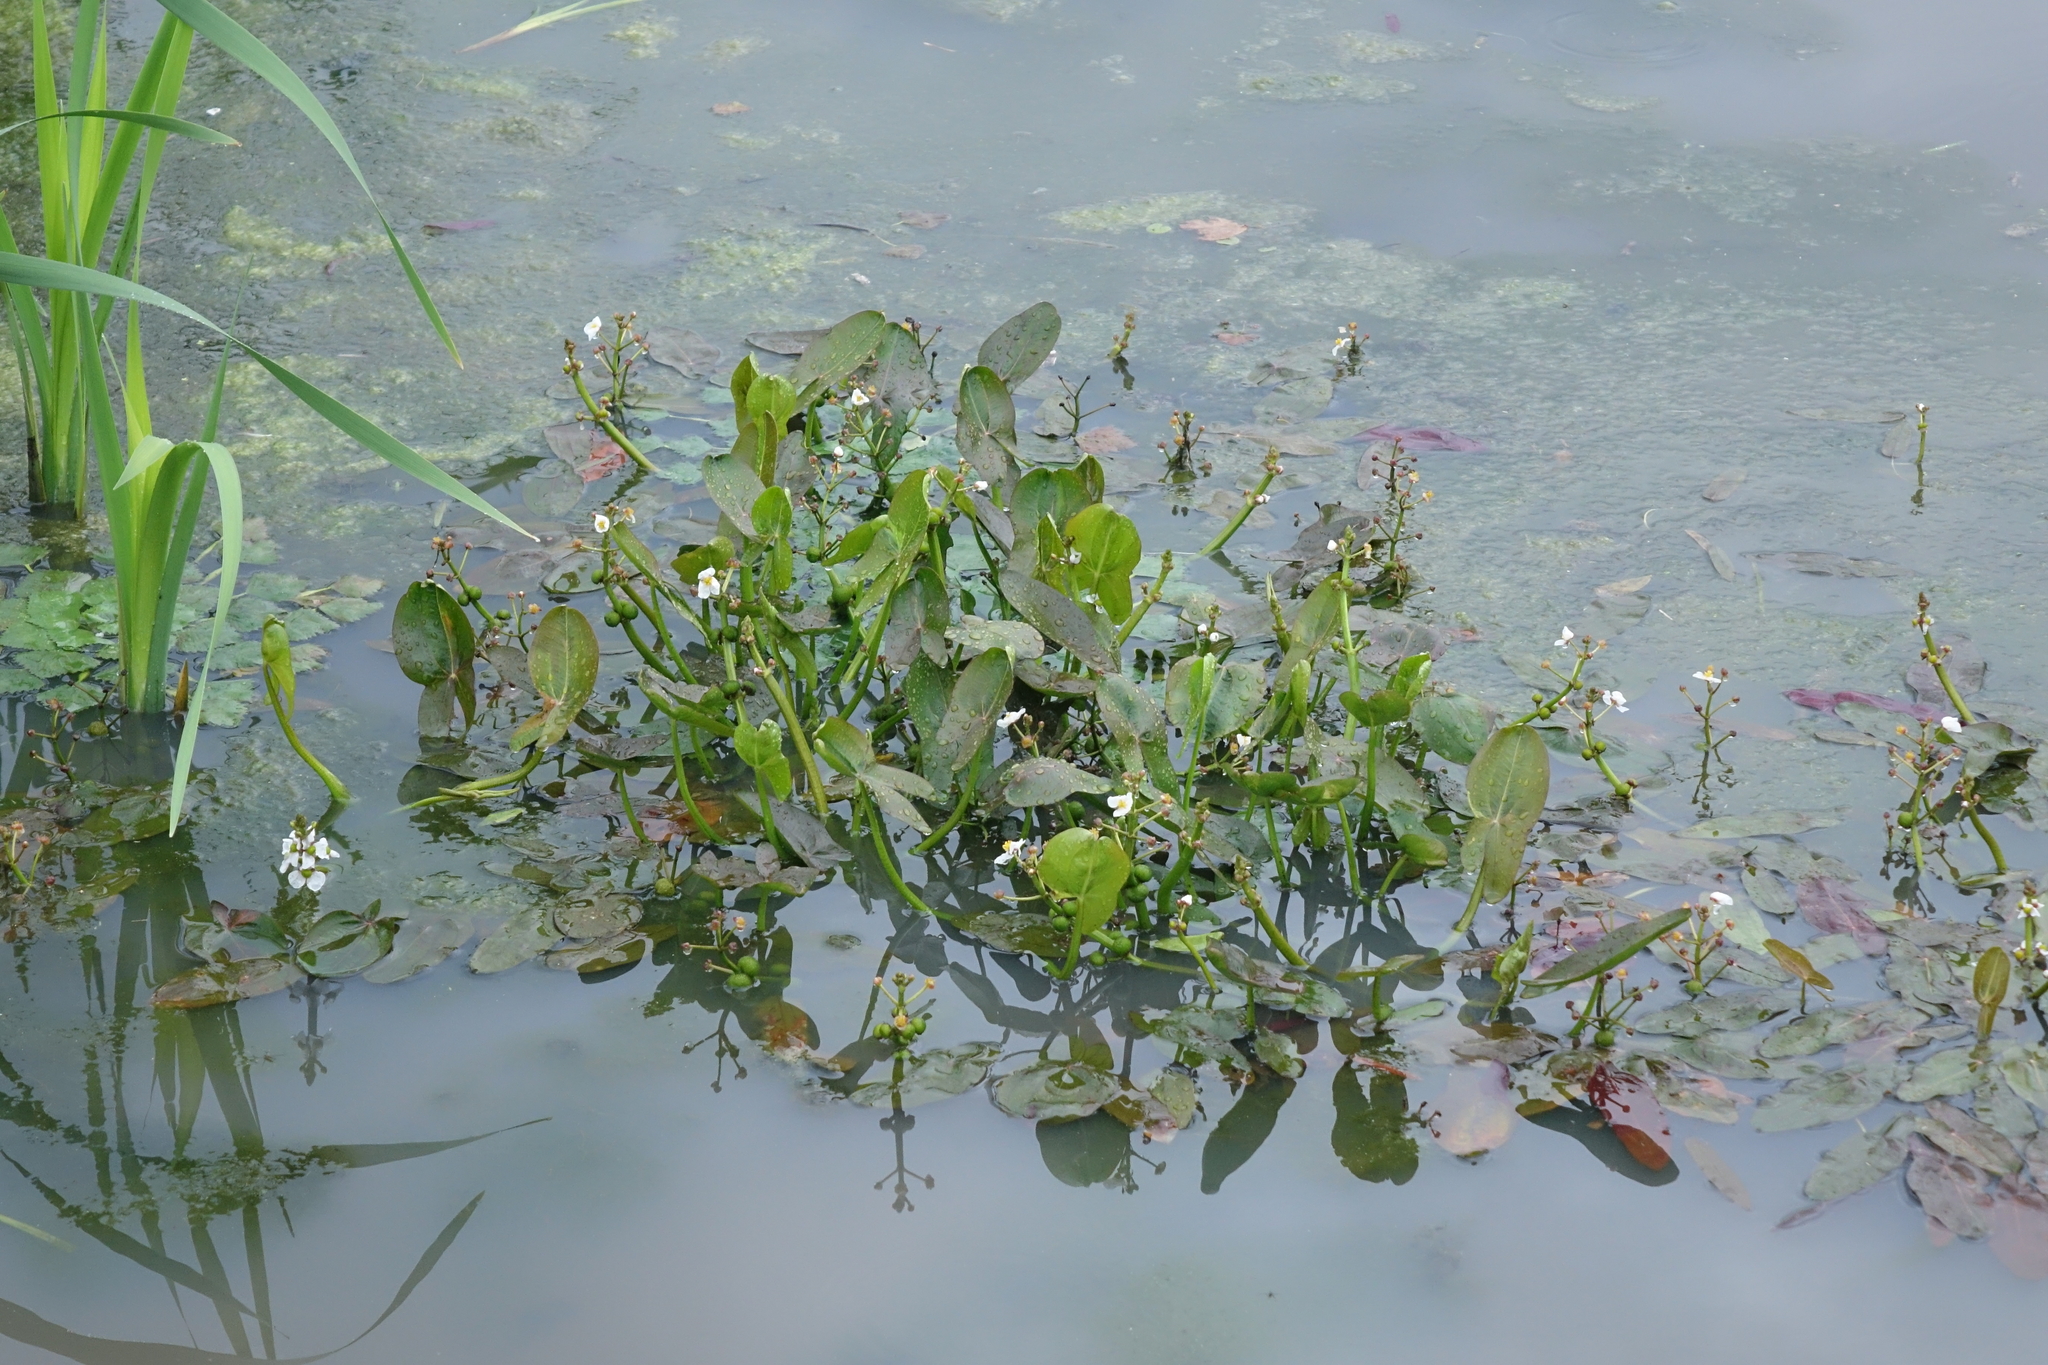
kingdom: Plantae
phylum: Tracheophyta
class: Liliopsida
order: Alismatales
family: Alismataceae
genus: Sagittaria
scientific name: Sagittaria natans
